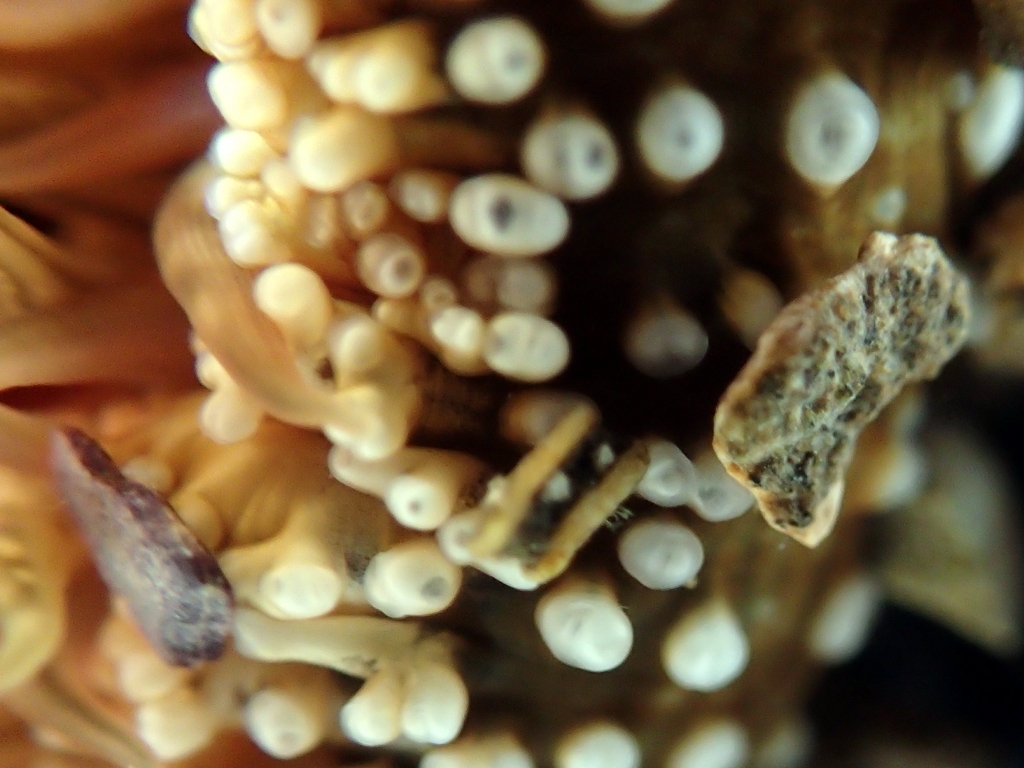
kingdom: Animalia
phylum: Cnidaria
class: Anthozoa
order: Actiniaria
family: Actiniidae
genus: Oulactis
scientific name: Oulactis muscosa
